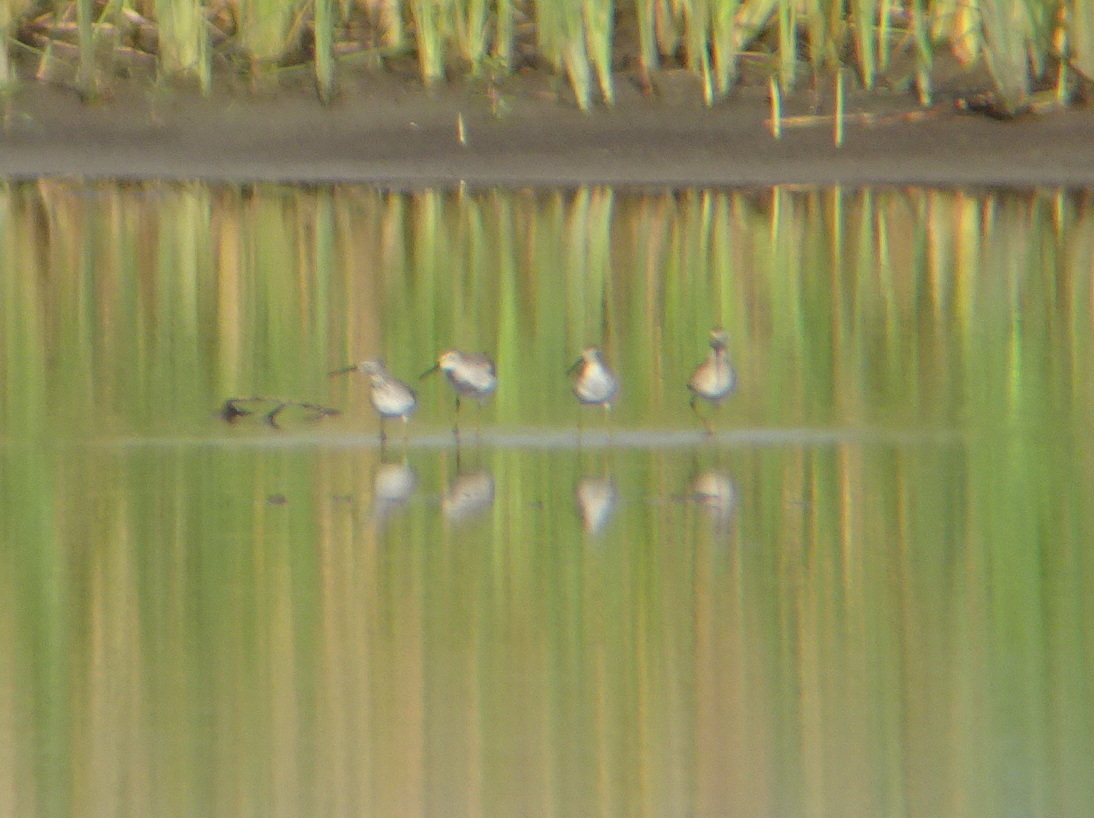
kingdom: Animalia
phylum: Chordata
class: Aves
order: Charadriiformes
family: Scolopacidae
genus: Calidris
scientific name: Calidris himantopus
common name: Stilt sandpiper
